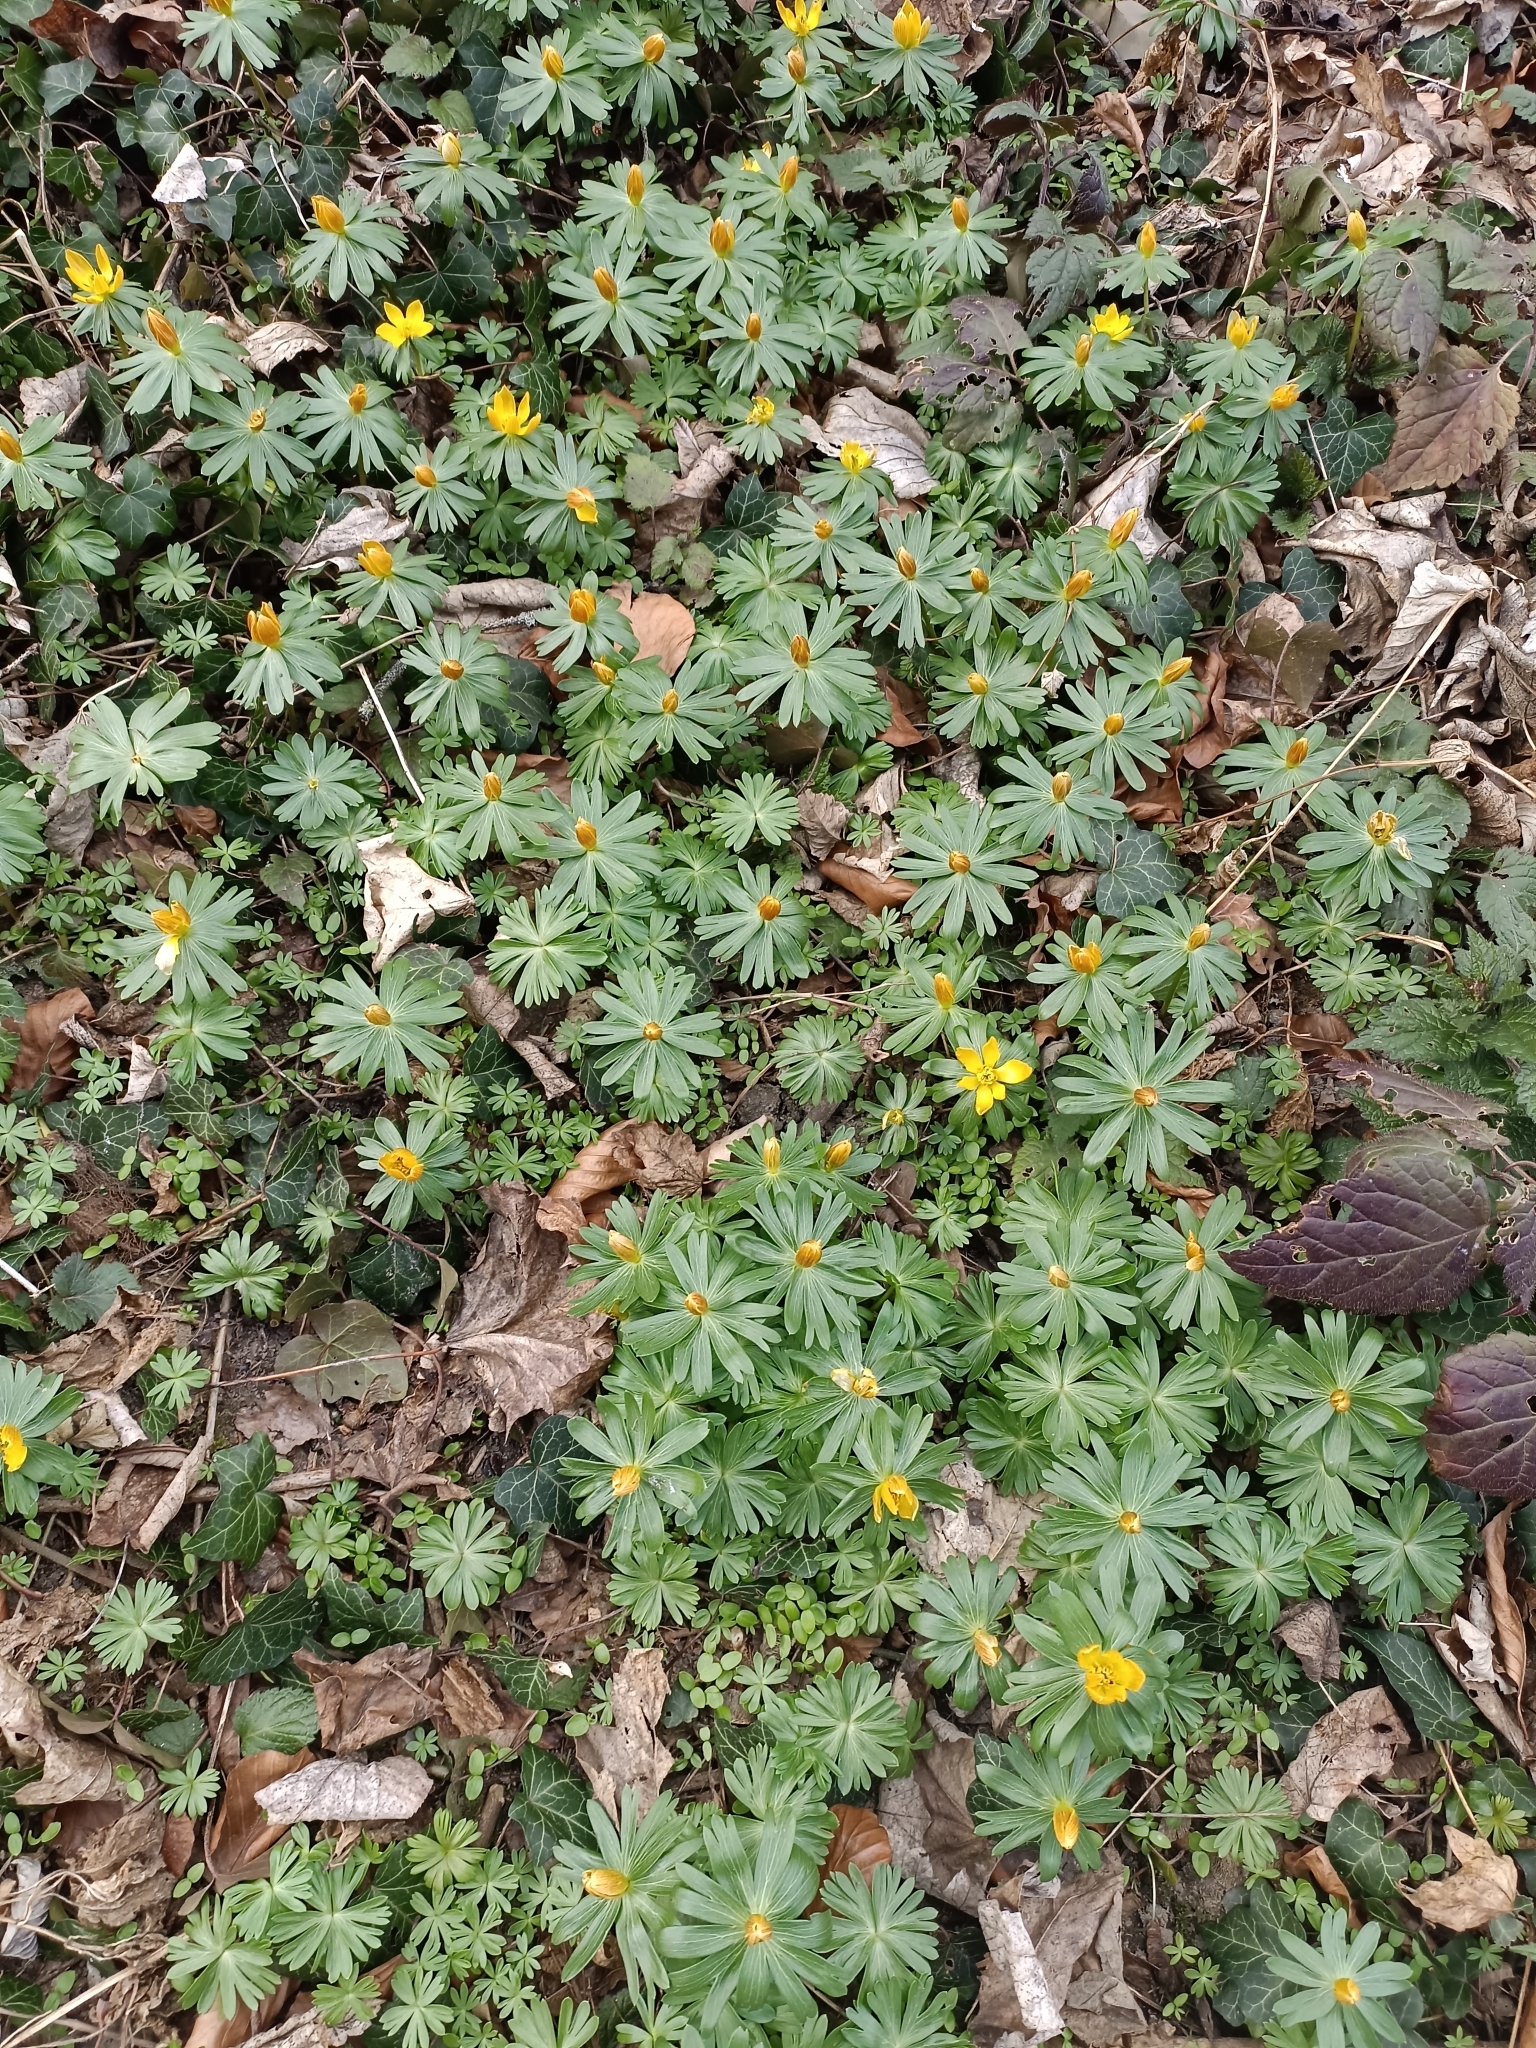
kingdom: Plantae
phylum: Tracheophyta
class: Magnoliopsida
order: Ranunculales
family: Ranunculaceae
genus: Eranthis
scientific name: Eranthis hyemalis
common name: Winter aconite
